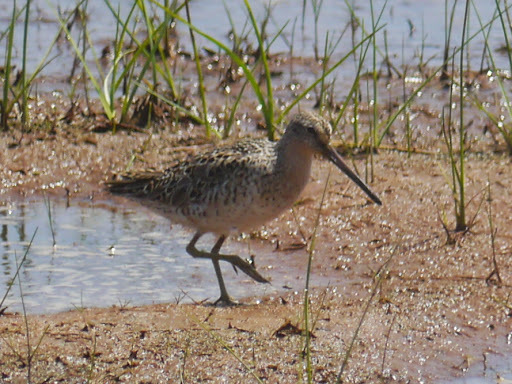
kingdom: Animalia
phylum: Chordata
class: Aves
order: Charadriiformes
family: Scolopacidae
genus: Limnodromus
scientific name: Limnodromus griseus
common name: Short-billed dowitcher
